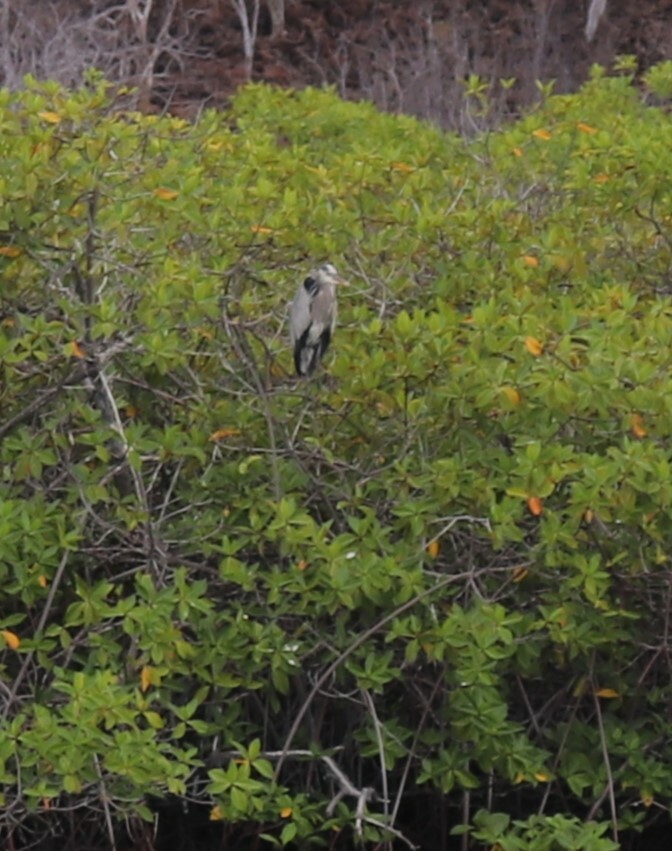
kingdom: Animalia
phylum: Chordata
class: Aves
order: Pelecaniformes
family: Ardeidae
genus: Ardea
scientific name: Ardea herodias
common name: Great blue heron
